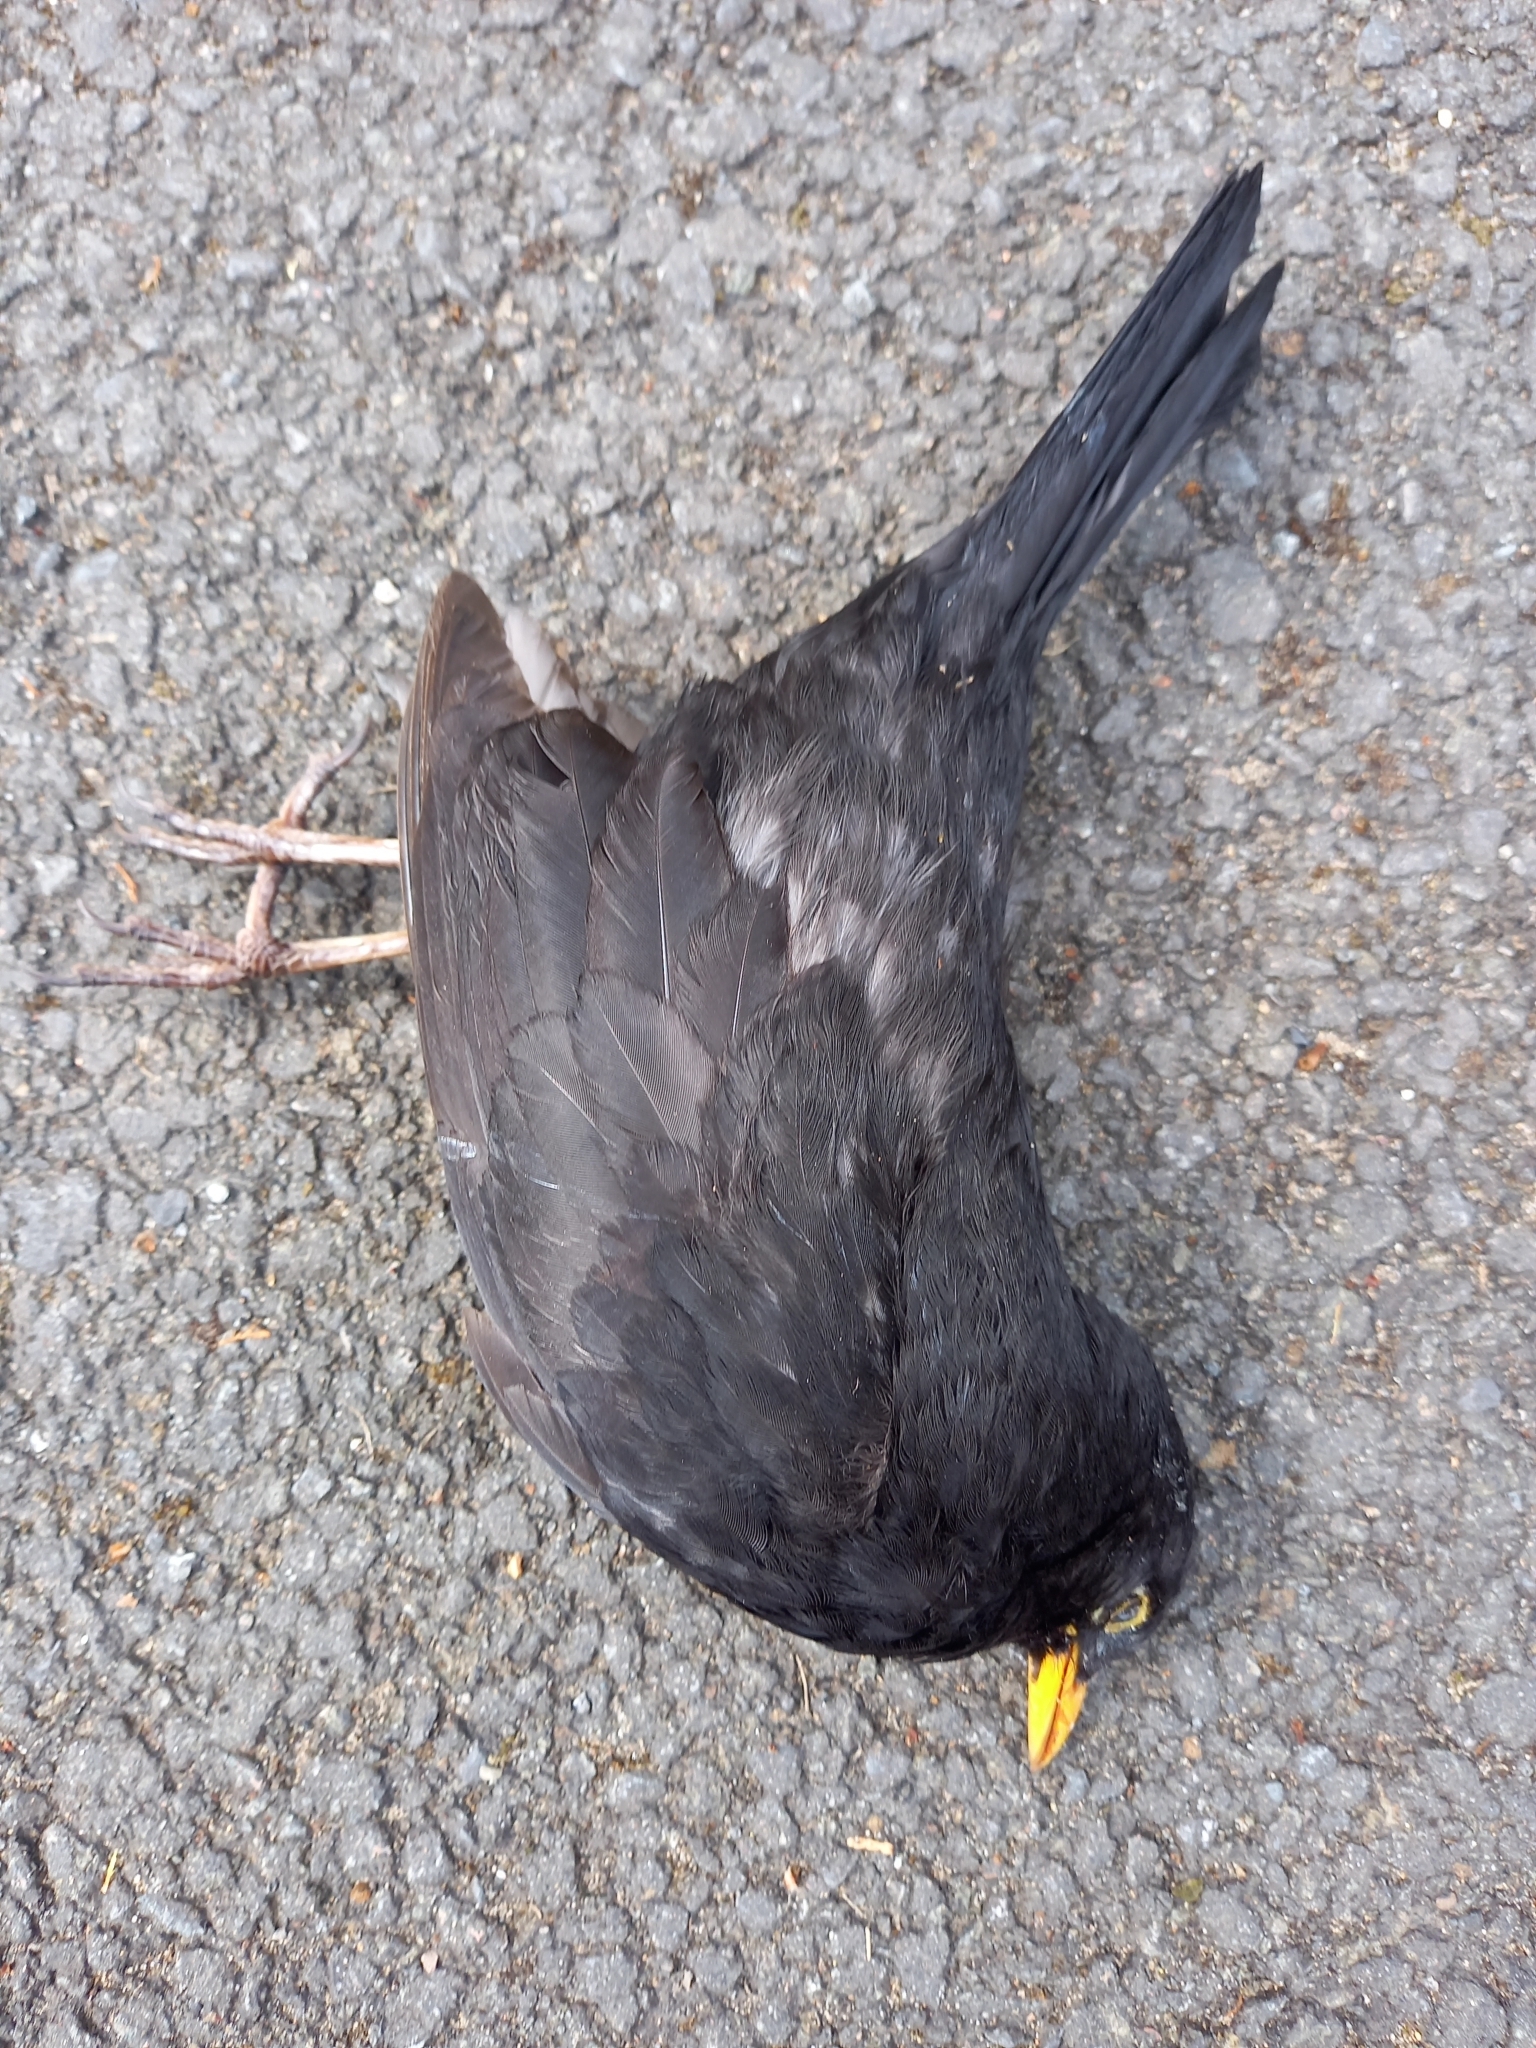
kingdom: Animalia
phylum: Chordata
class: Aves
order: Passeriformes
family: Turdidae
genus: Turdus
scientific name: Turdus merula
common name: Common blackbird
